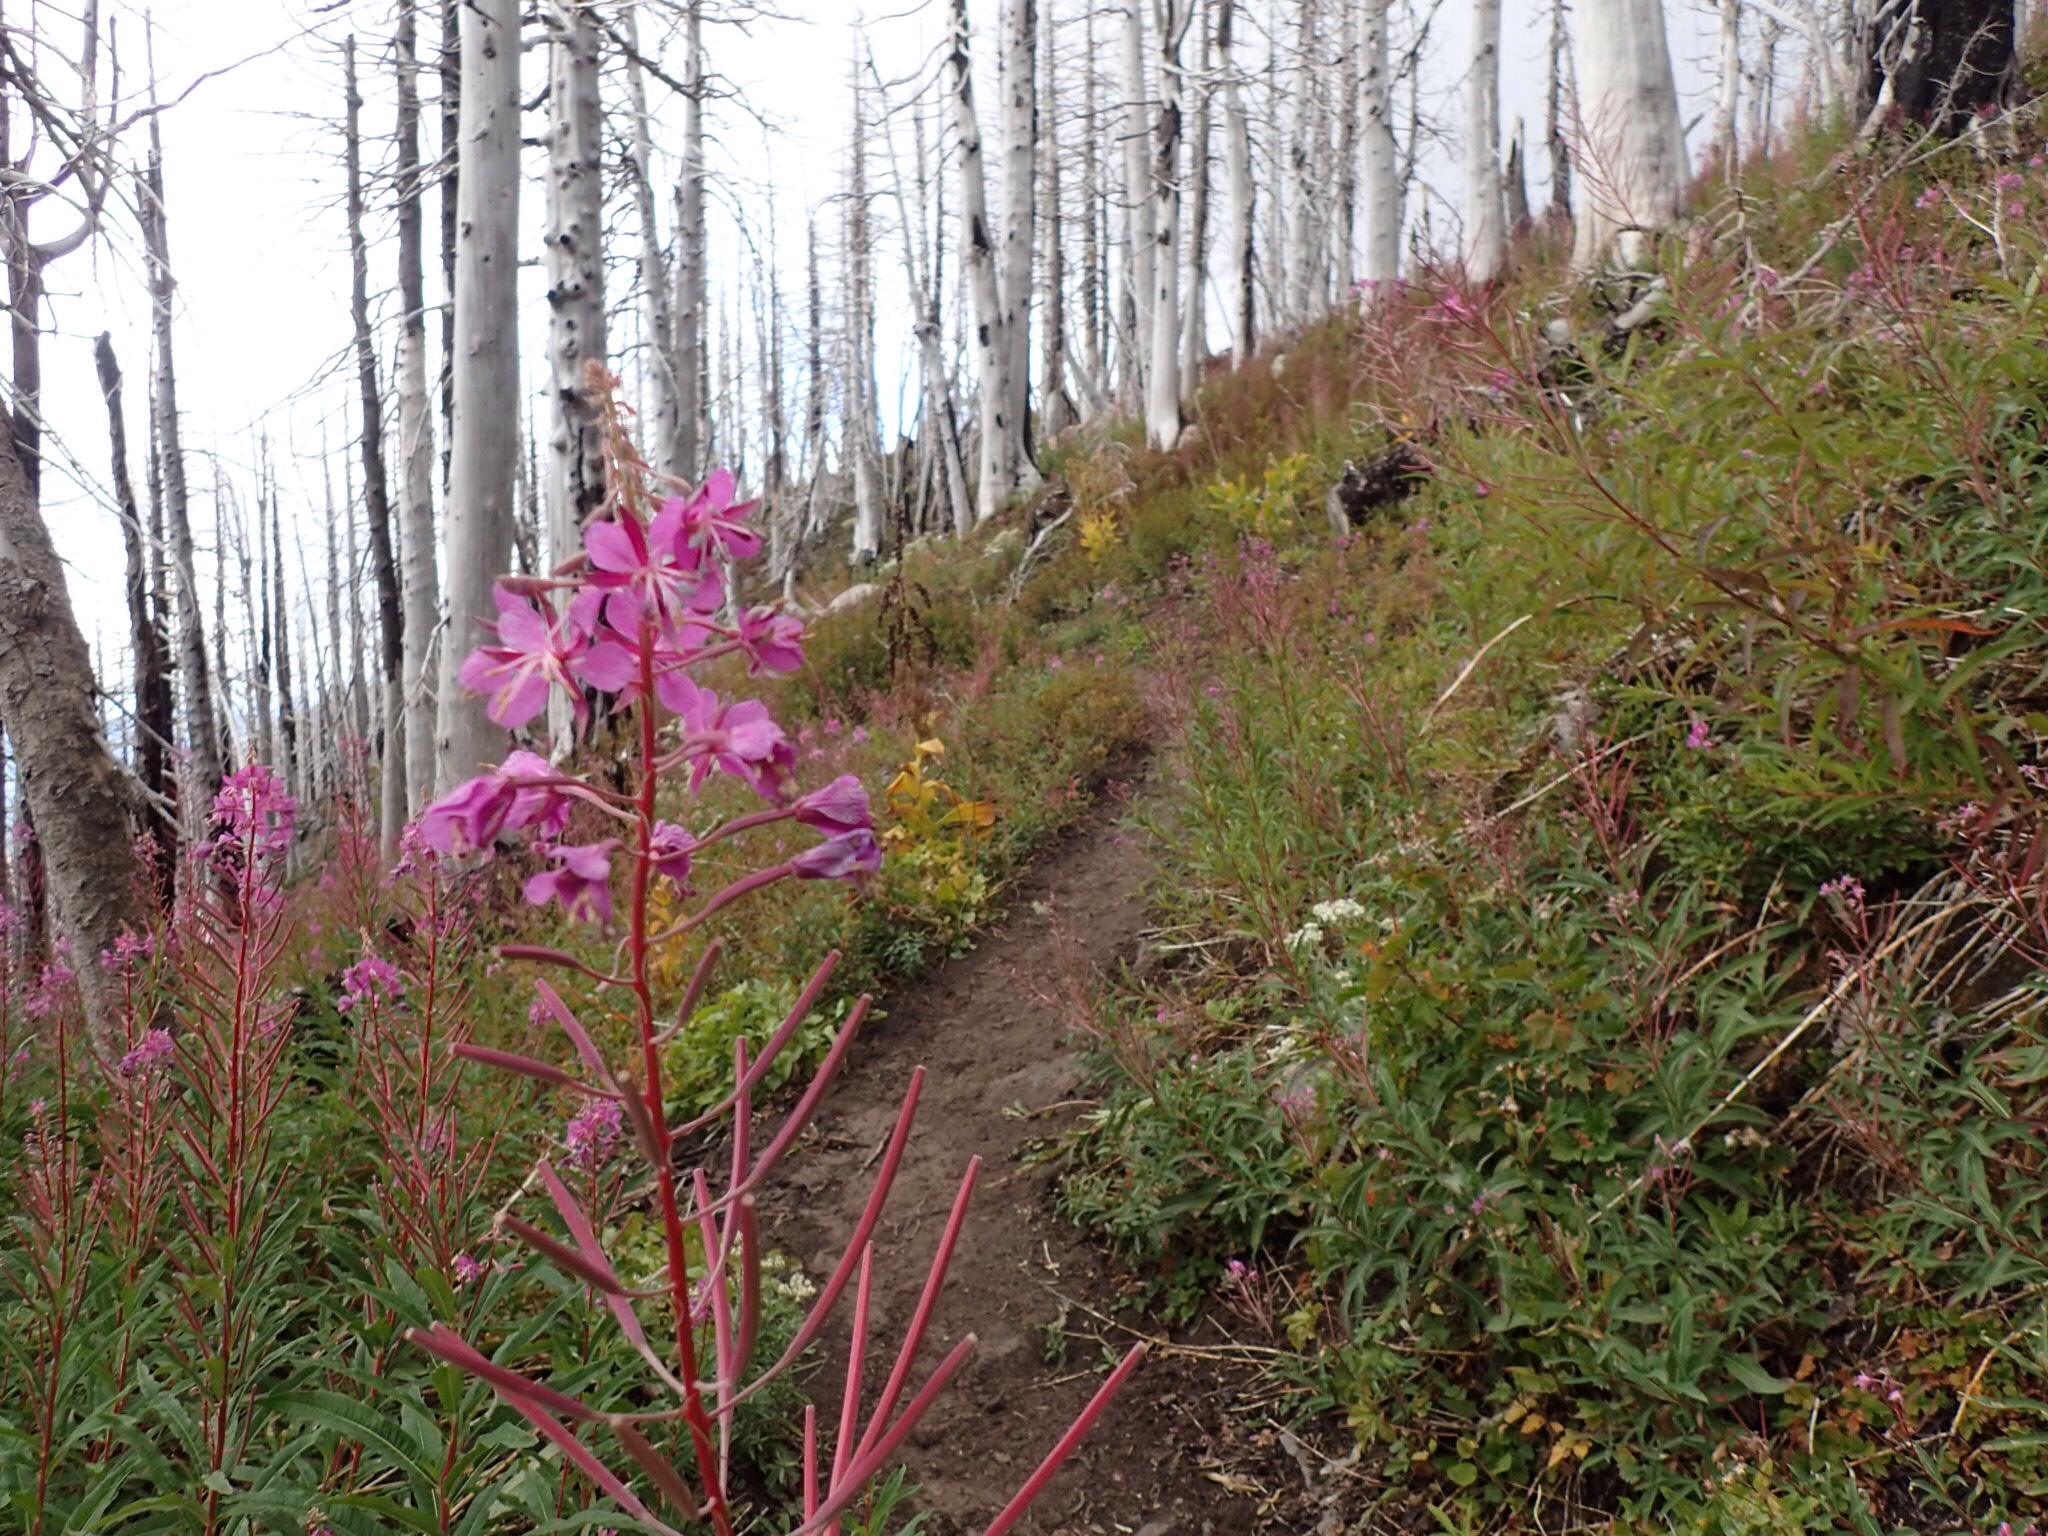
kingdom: Plantae
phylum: Tracheophyta
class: Magnoliopsida
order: Myrtales
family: Onagraceae
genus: Chamaenerion
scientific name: Chamaenerion angustifolium
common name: Fireweed
